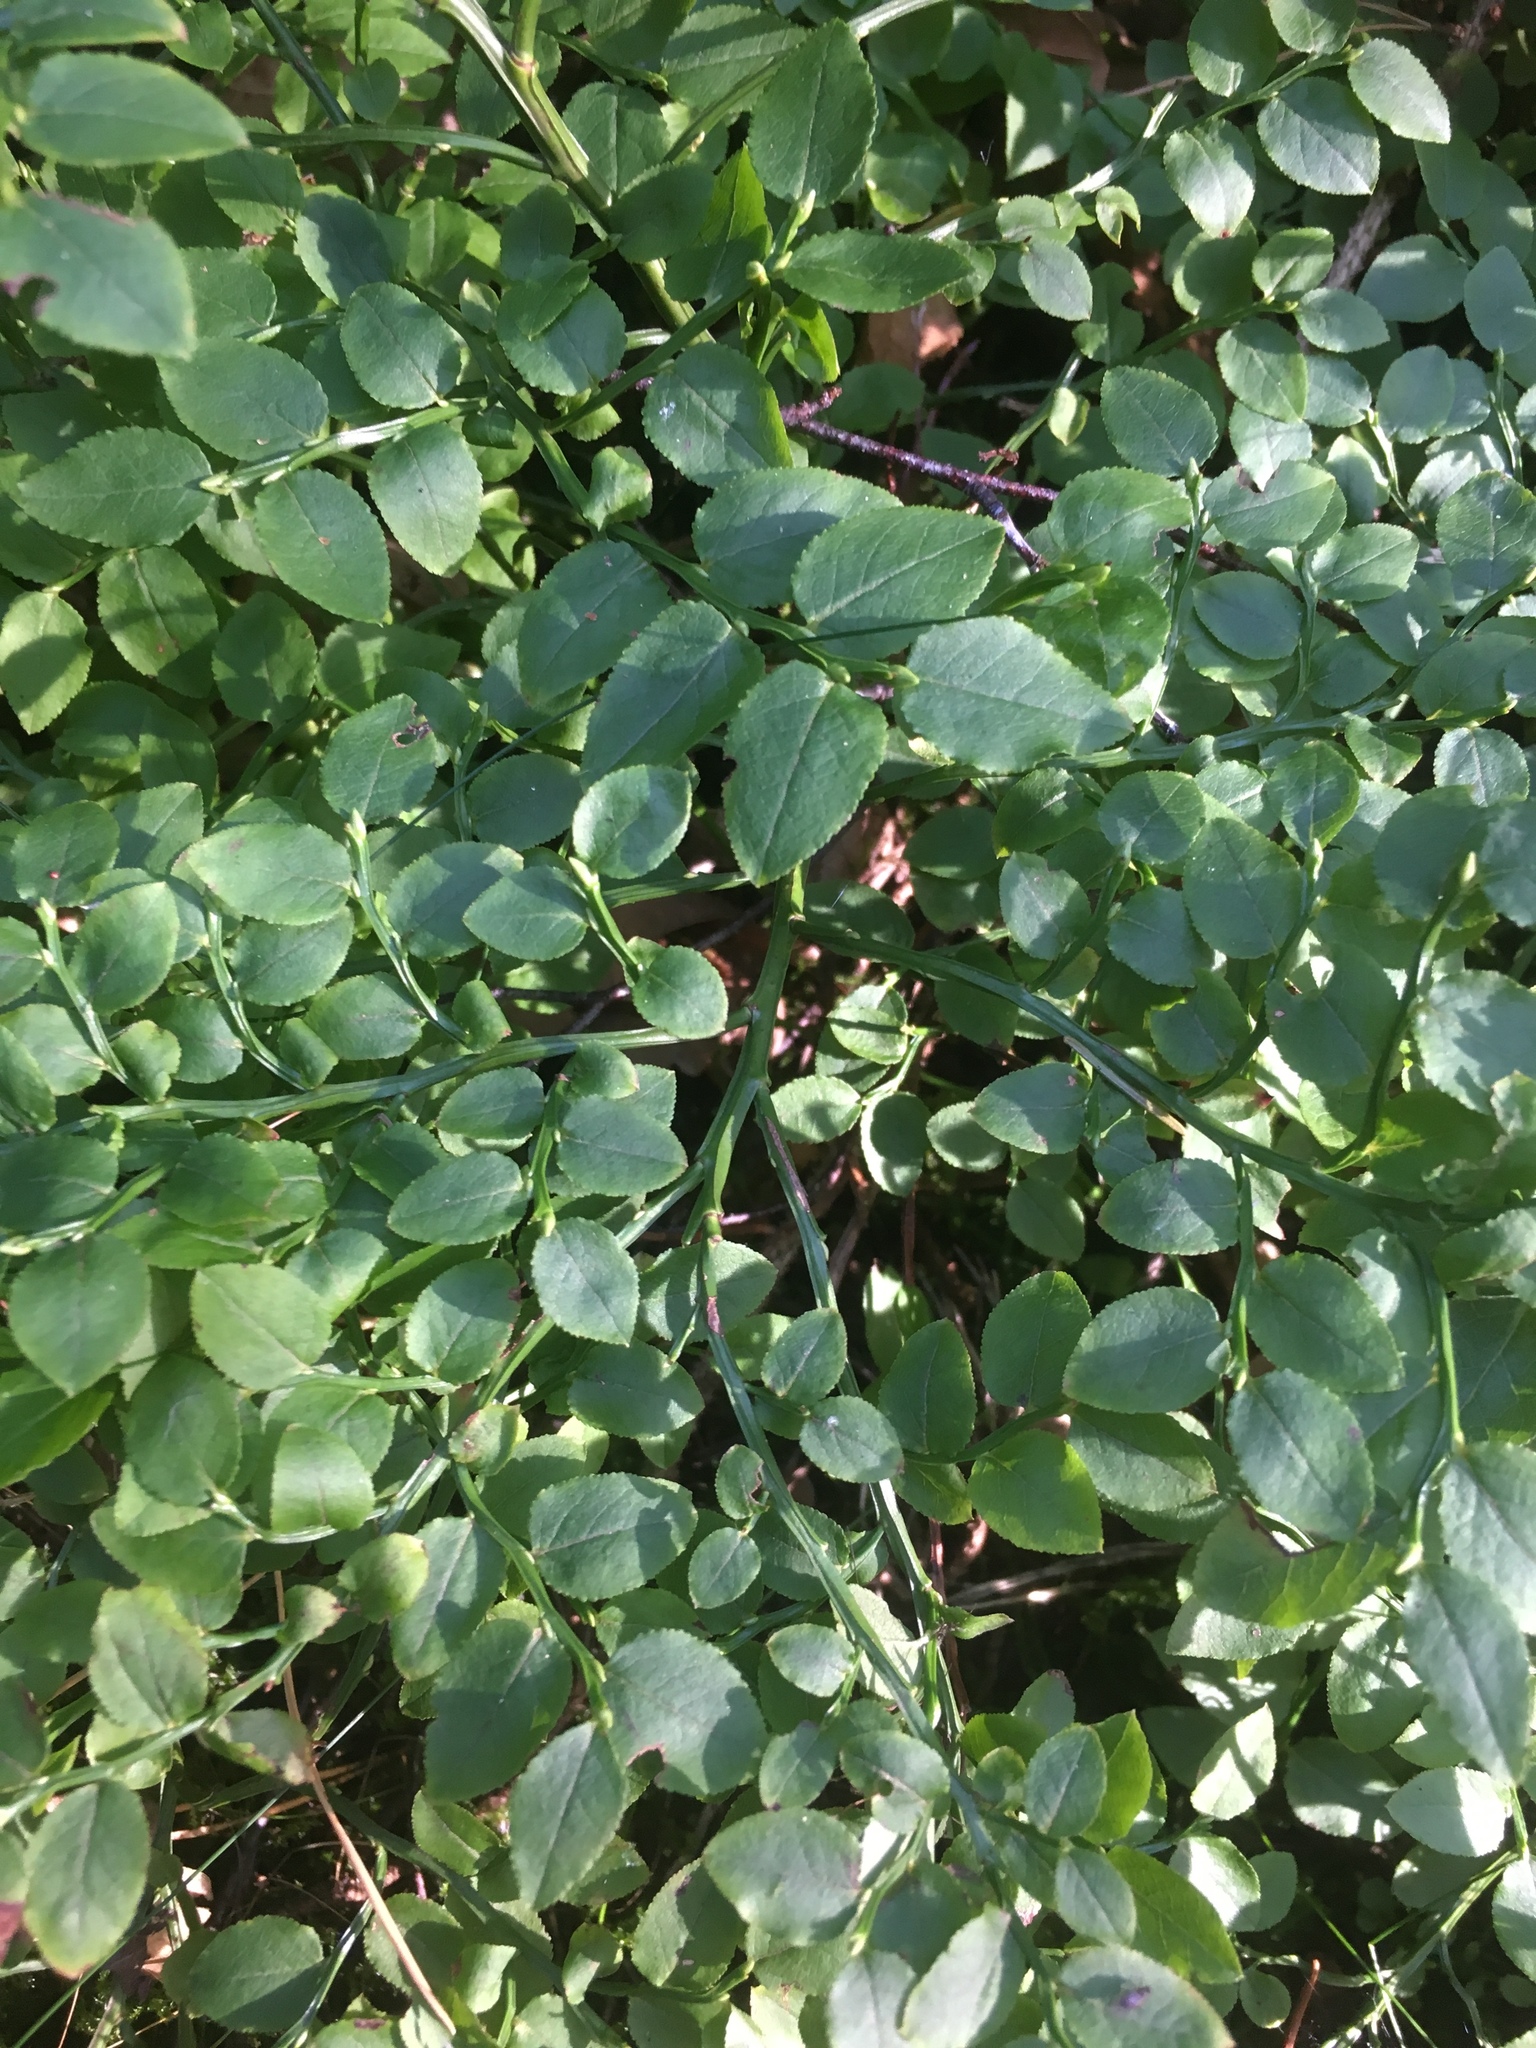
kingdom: Plantae
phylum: Tracheophyta
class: Magnoliopsida
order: Ericales
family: Ericaceae
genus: Vaccinium
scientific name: Vaccinium myrtillus
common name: Bilberry
